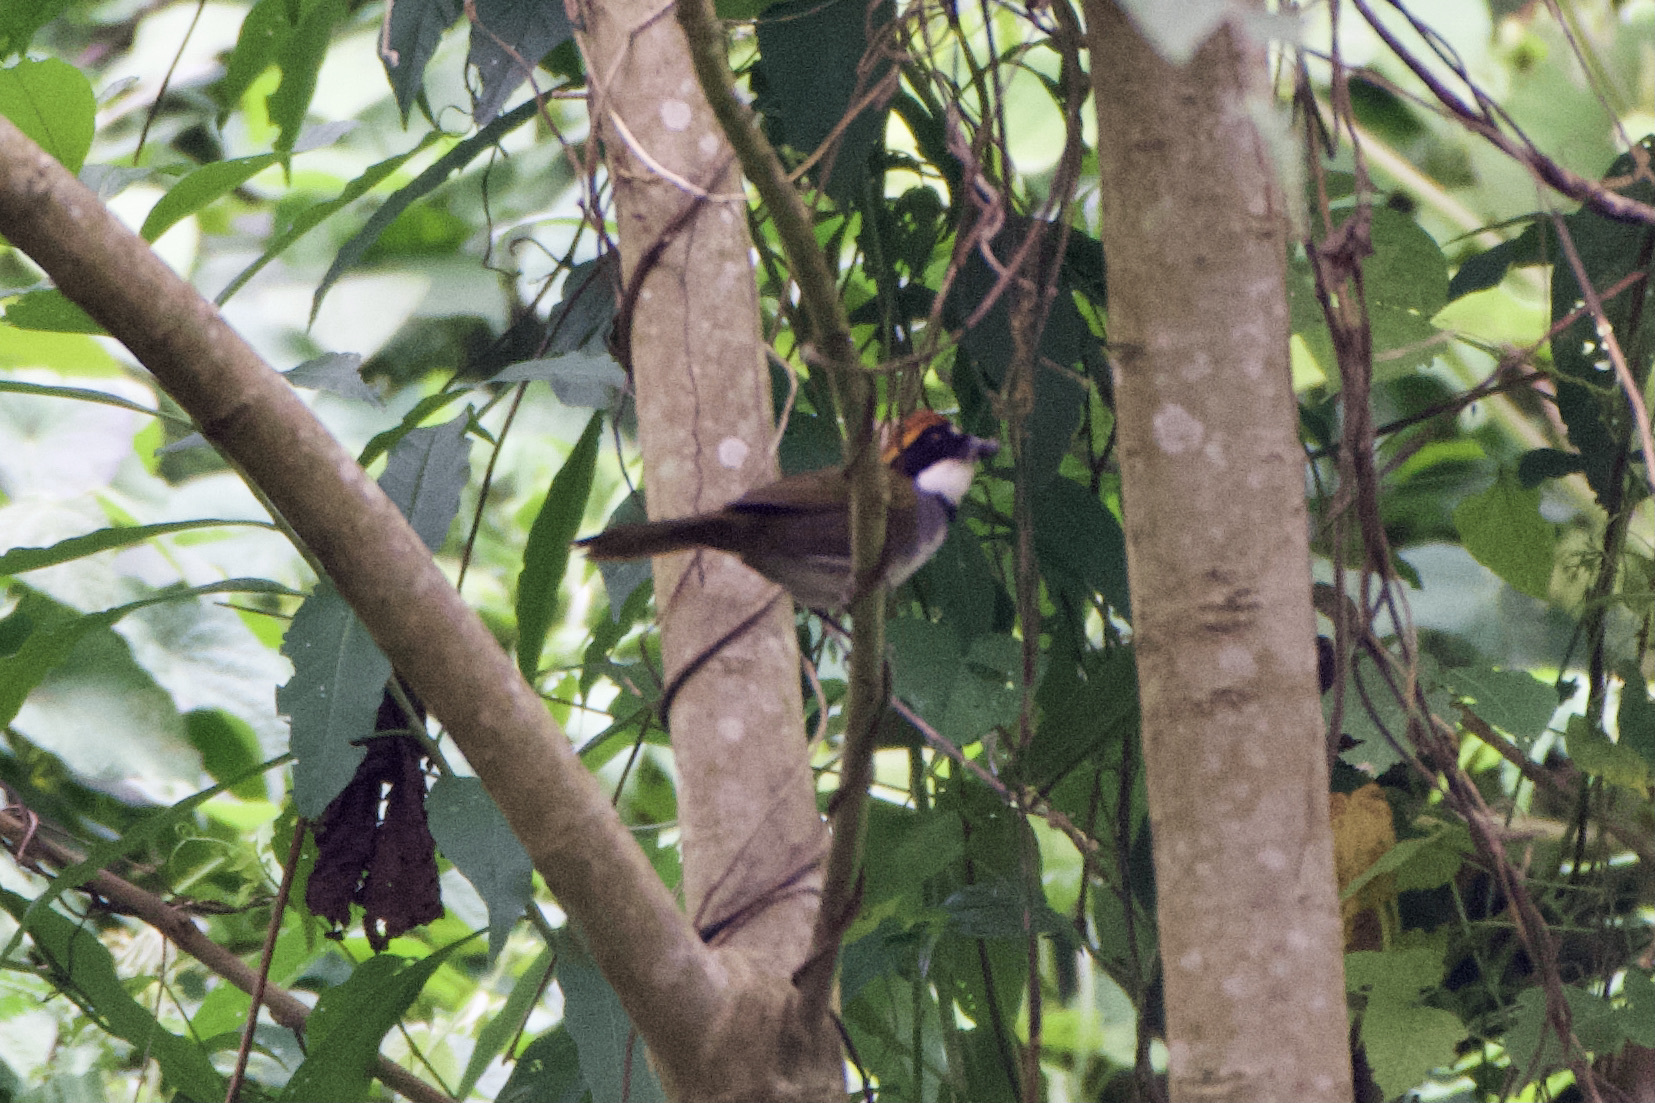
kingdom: Animalia
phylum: Chordata
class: Aves
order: Passeriformes
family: Passerellidae
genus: Arremon
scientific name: Arremon brunneinucha
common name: Chestnut-capped brushfinch
